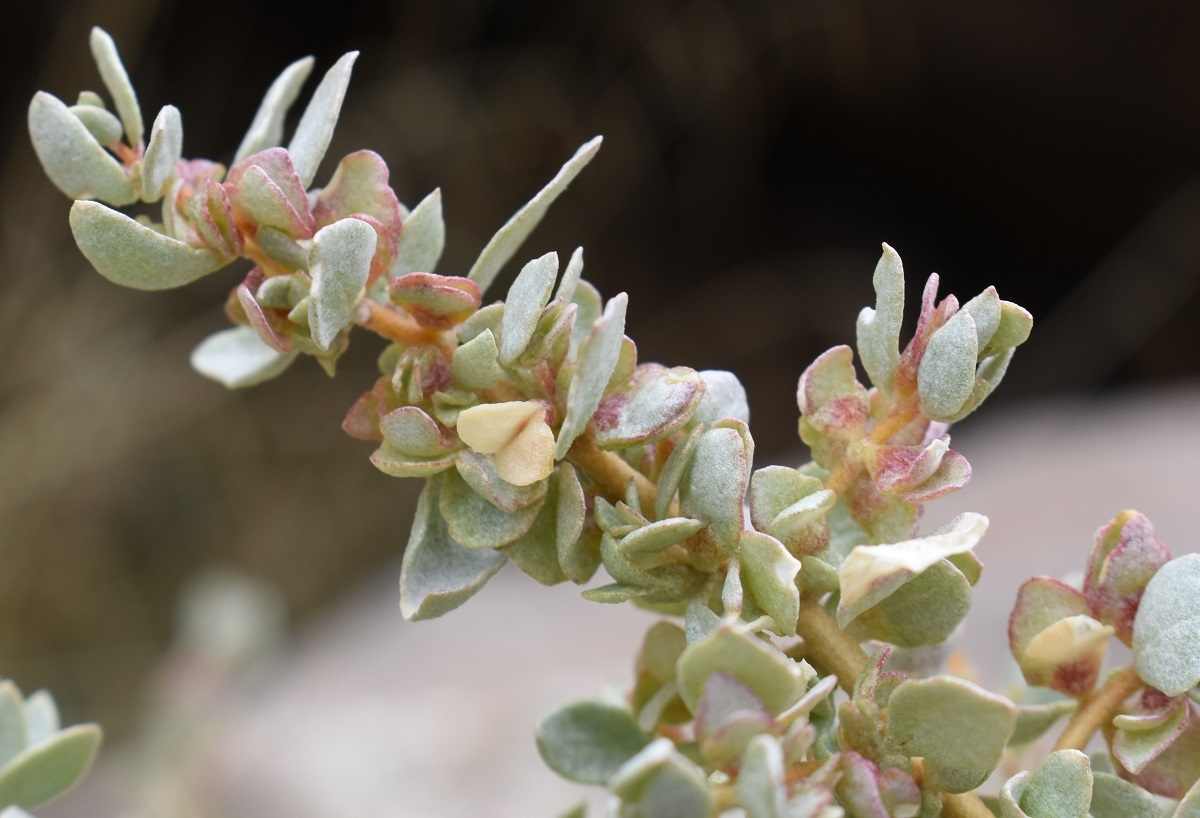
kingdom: Plantae
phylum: Tracheophyta
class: Magnoliopsida
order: Caryophyllales
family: Amaranthaceae
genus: Atriplex
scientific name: Atriplex confertifolia
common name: Shadscale
